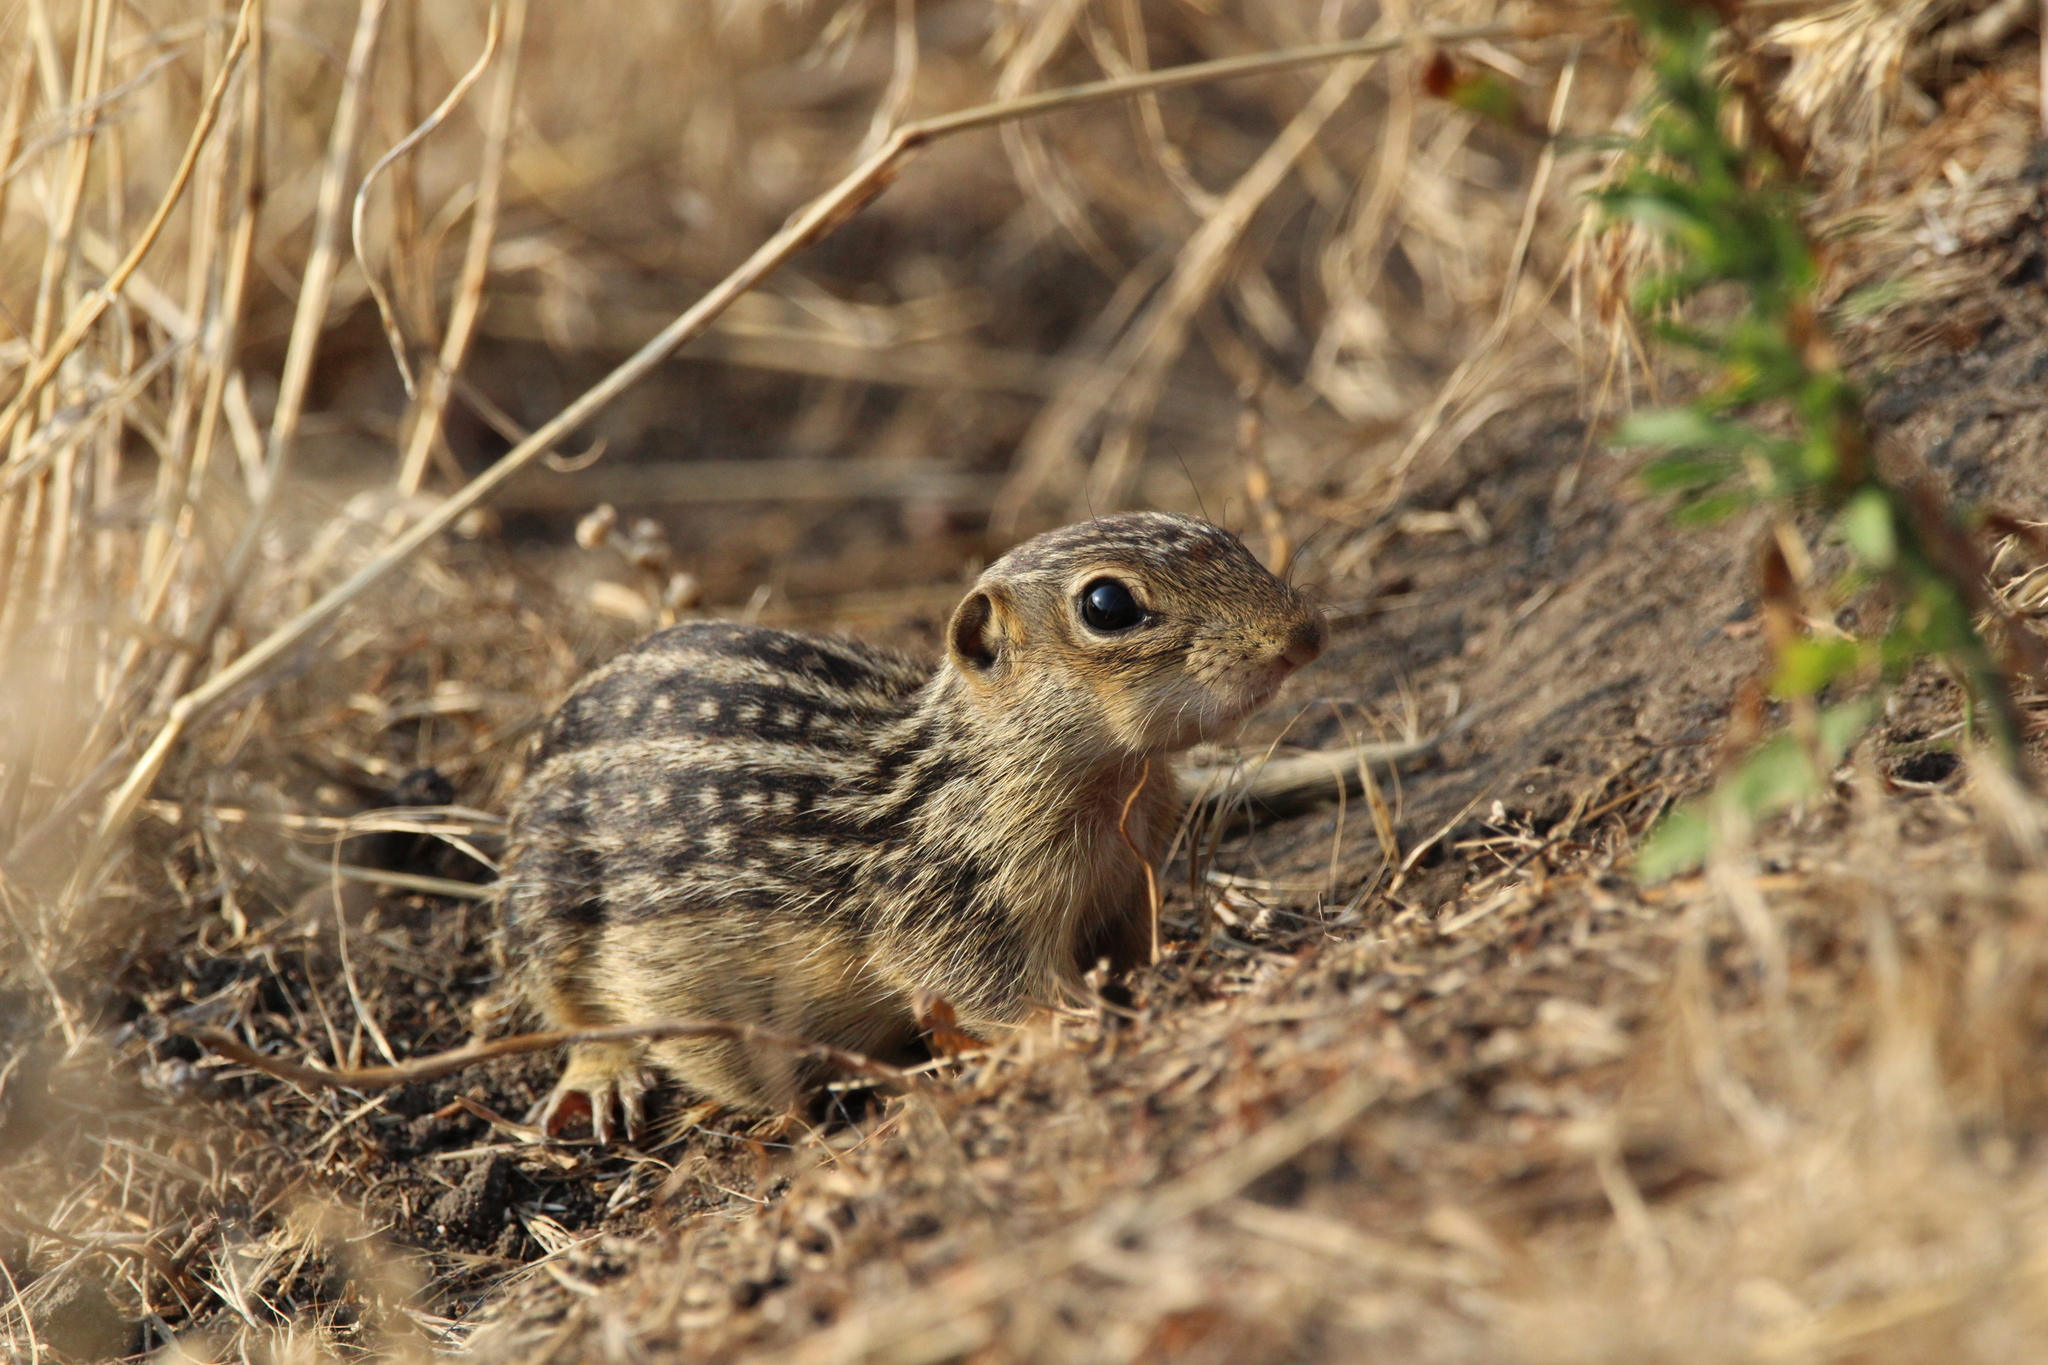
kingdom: Animalia
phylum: Chordata
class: Mammalia
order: Rodentia
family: Sciuridae
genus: Ictidomys
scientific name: Ictidomys tridecemlineatus
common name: Thirteen-lined ground squirrel
